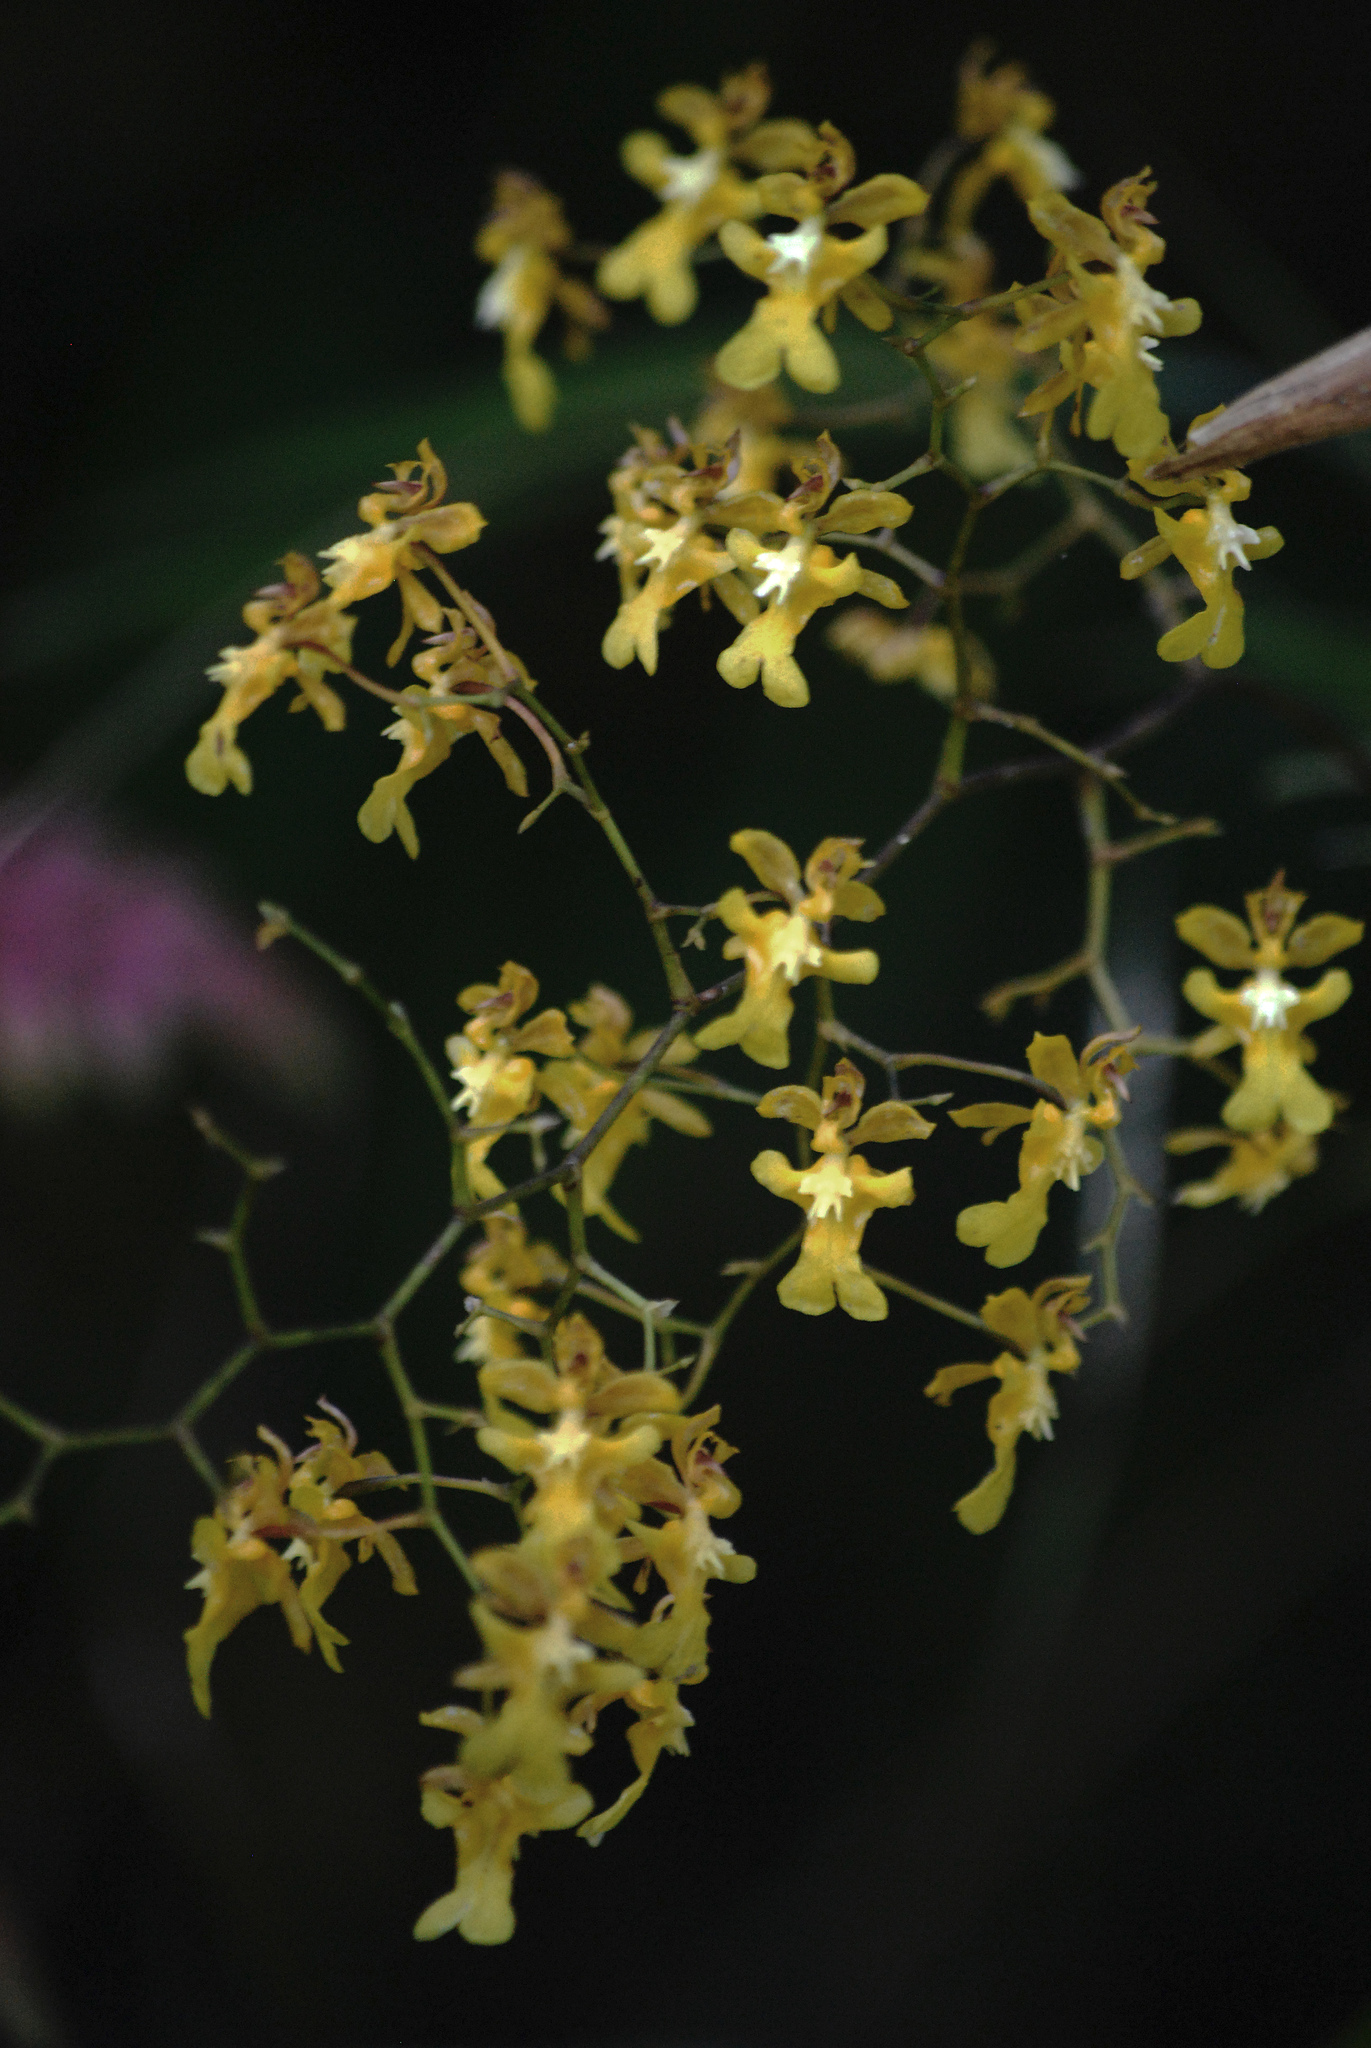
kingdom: Plantae
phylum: Tracheophyta
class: Liliopsida
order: Asparagales
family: Orchidaceae
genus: Oncidium
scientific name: Oncidium ornithorhynchum
